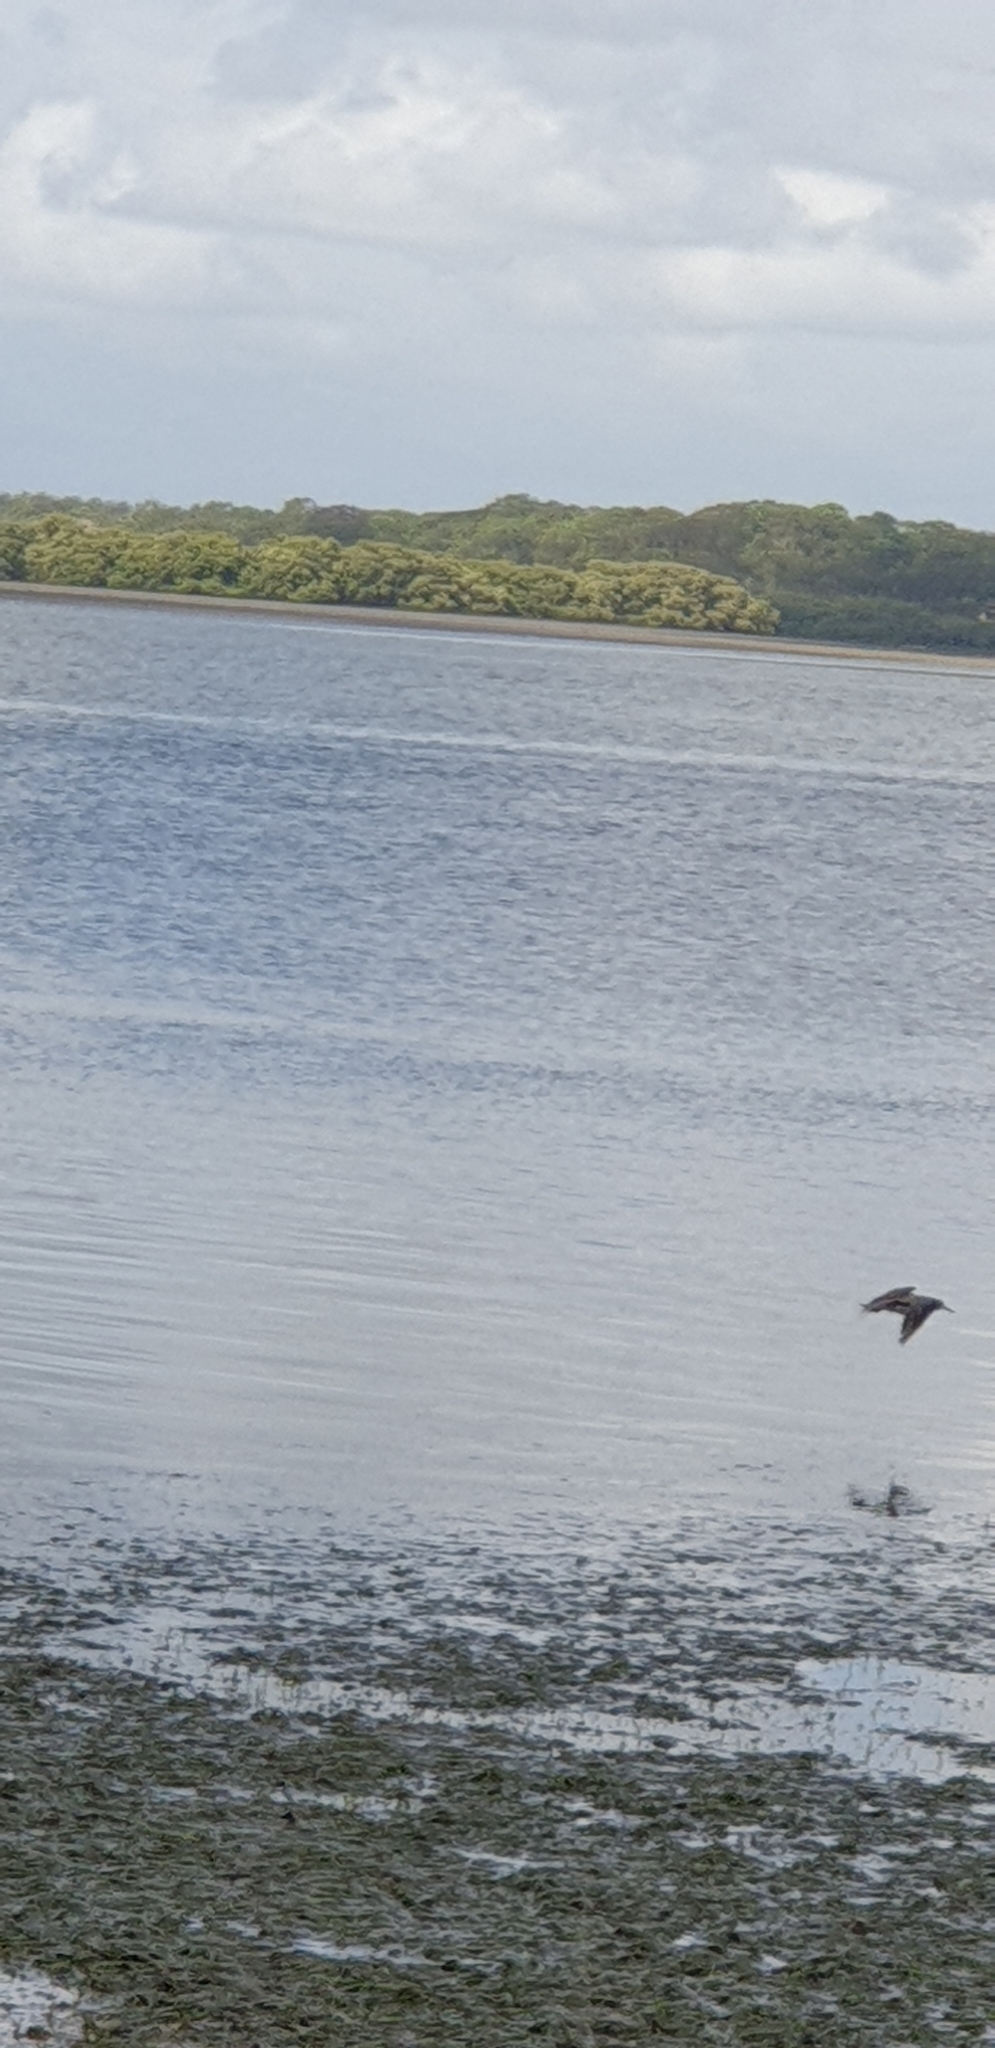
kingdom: Animalia
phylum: Chordata
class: Aves
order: Charadriiformes
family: Scolopacidae
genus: Tringa
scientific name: Tringa brevipes
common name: Grey-tailed tattler
